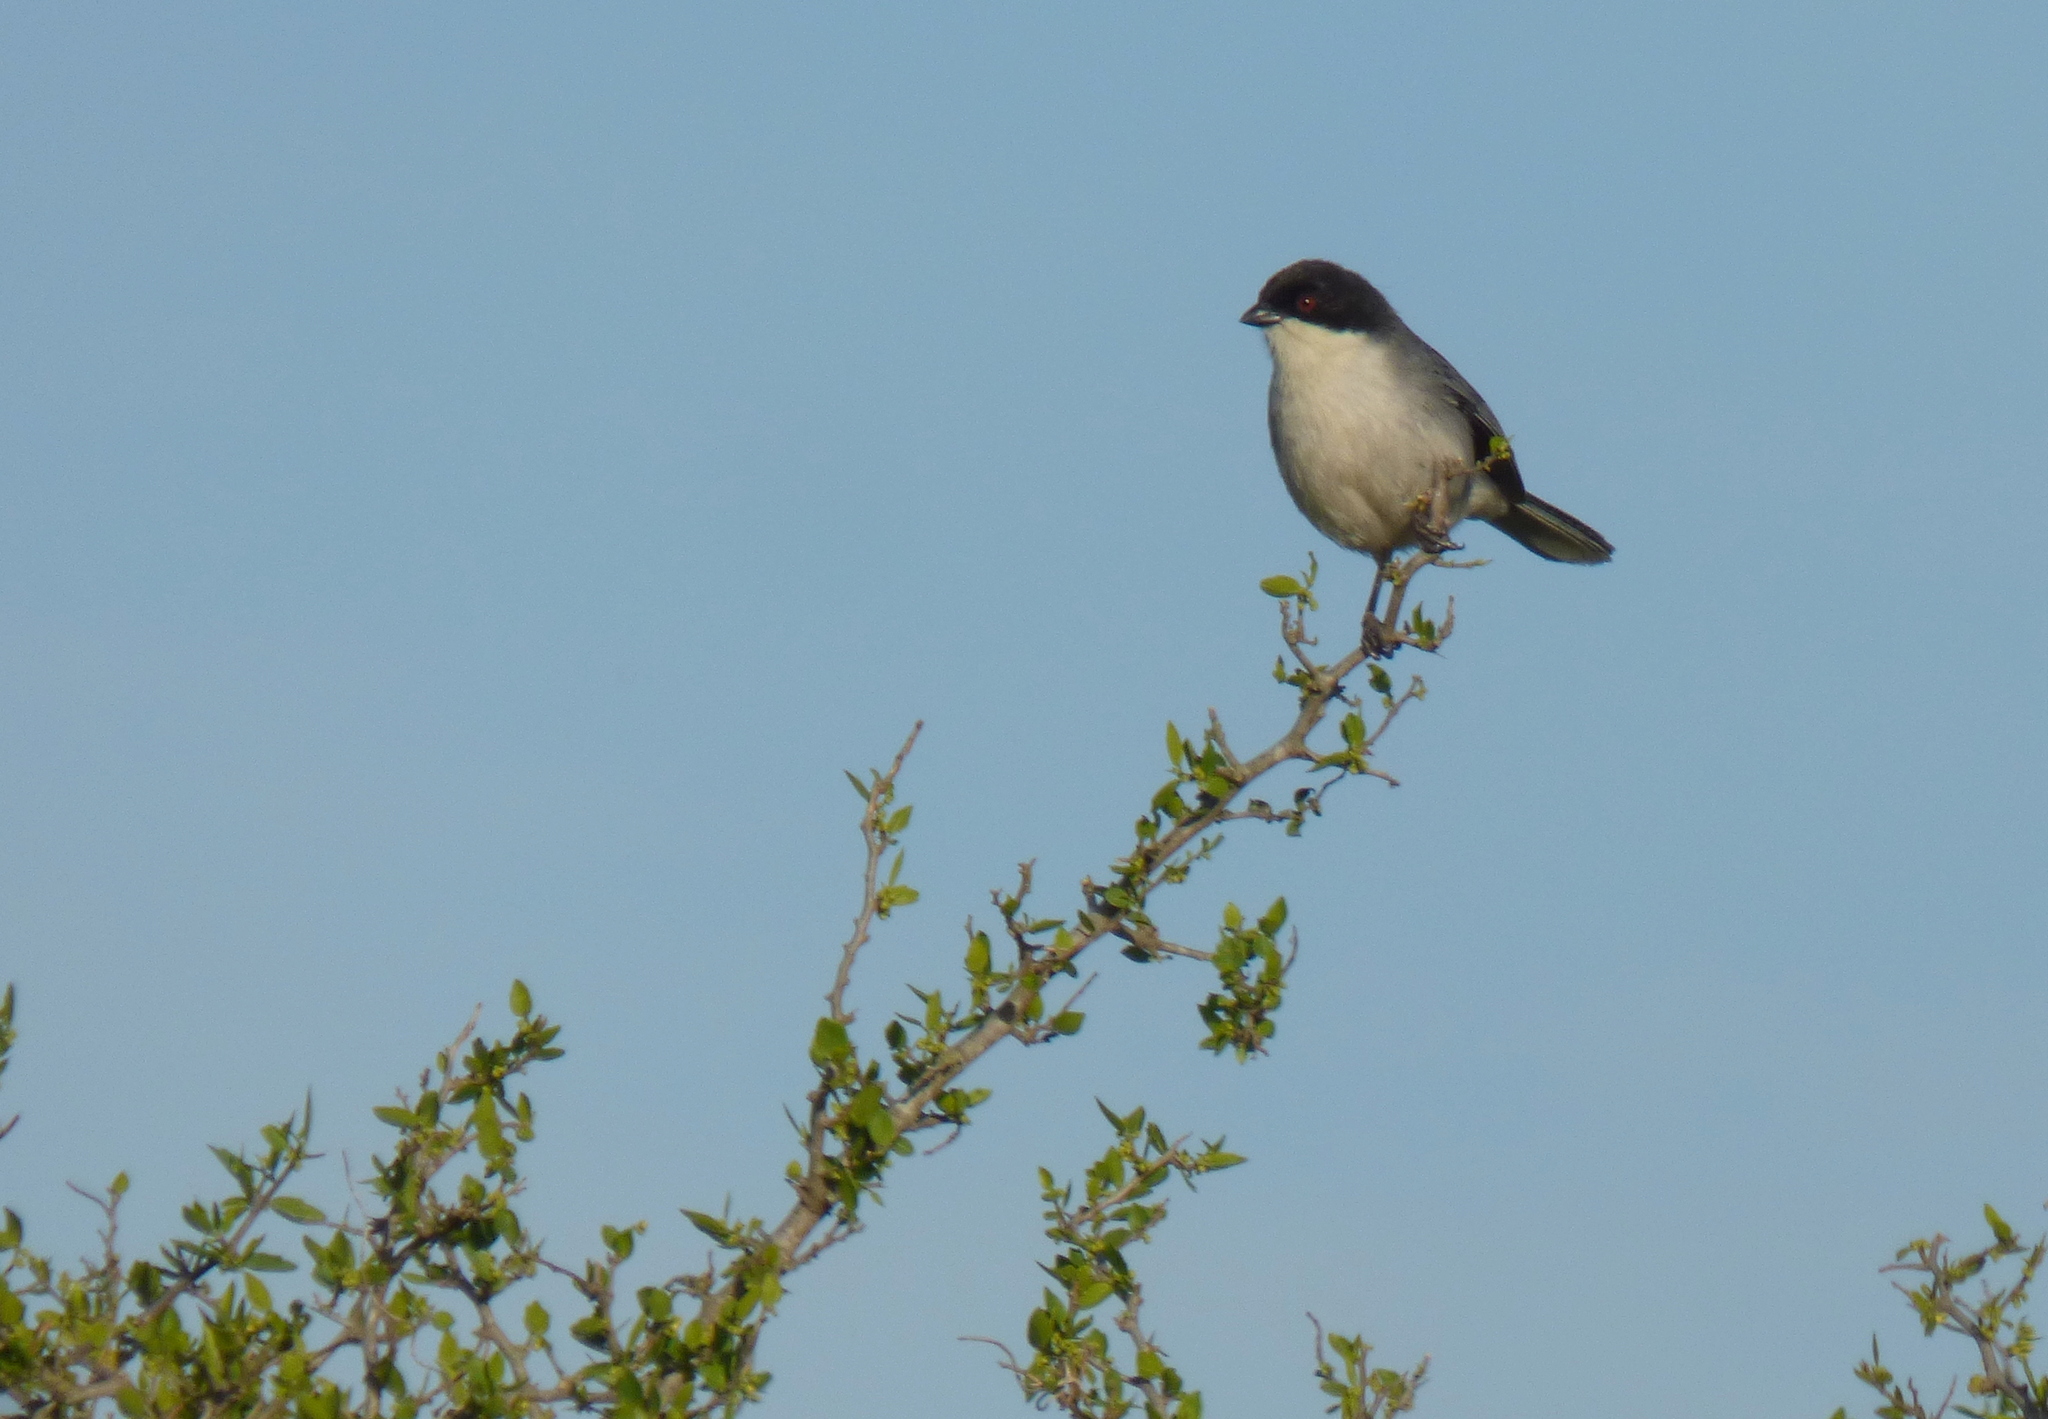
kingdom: Animalia
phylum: Chordata
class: Aves
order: Passeriformes
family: Thraupidae
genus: Microspingus
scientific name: Microspingus melanoleucus
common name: Black-capped warbling-finch
